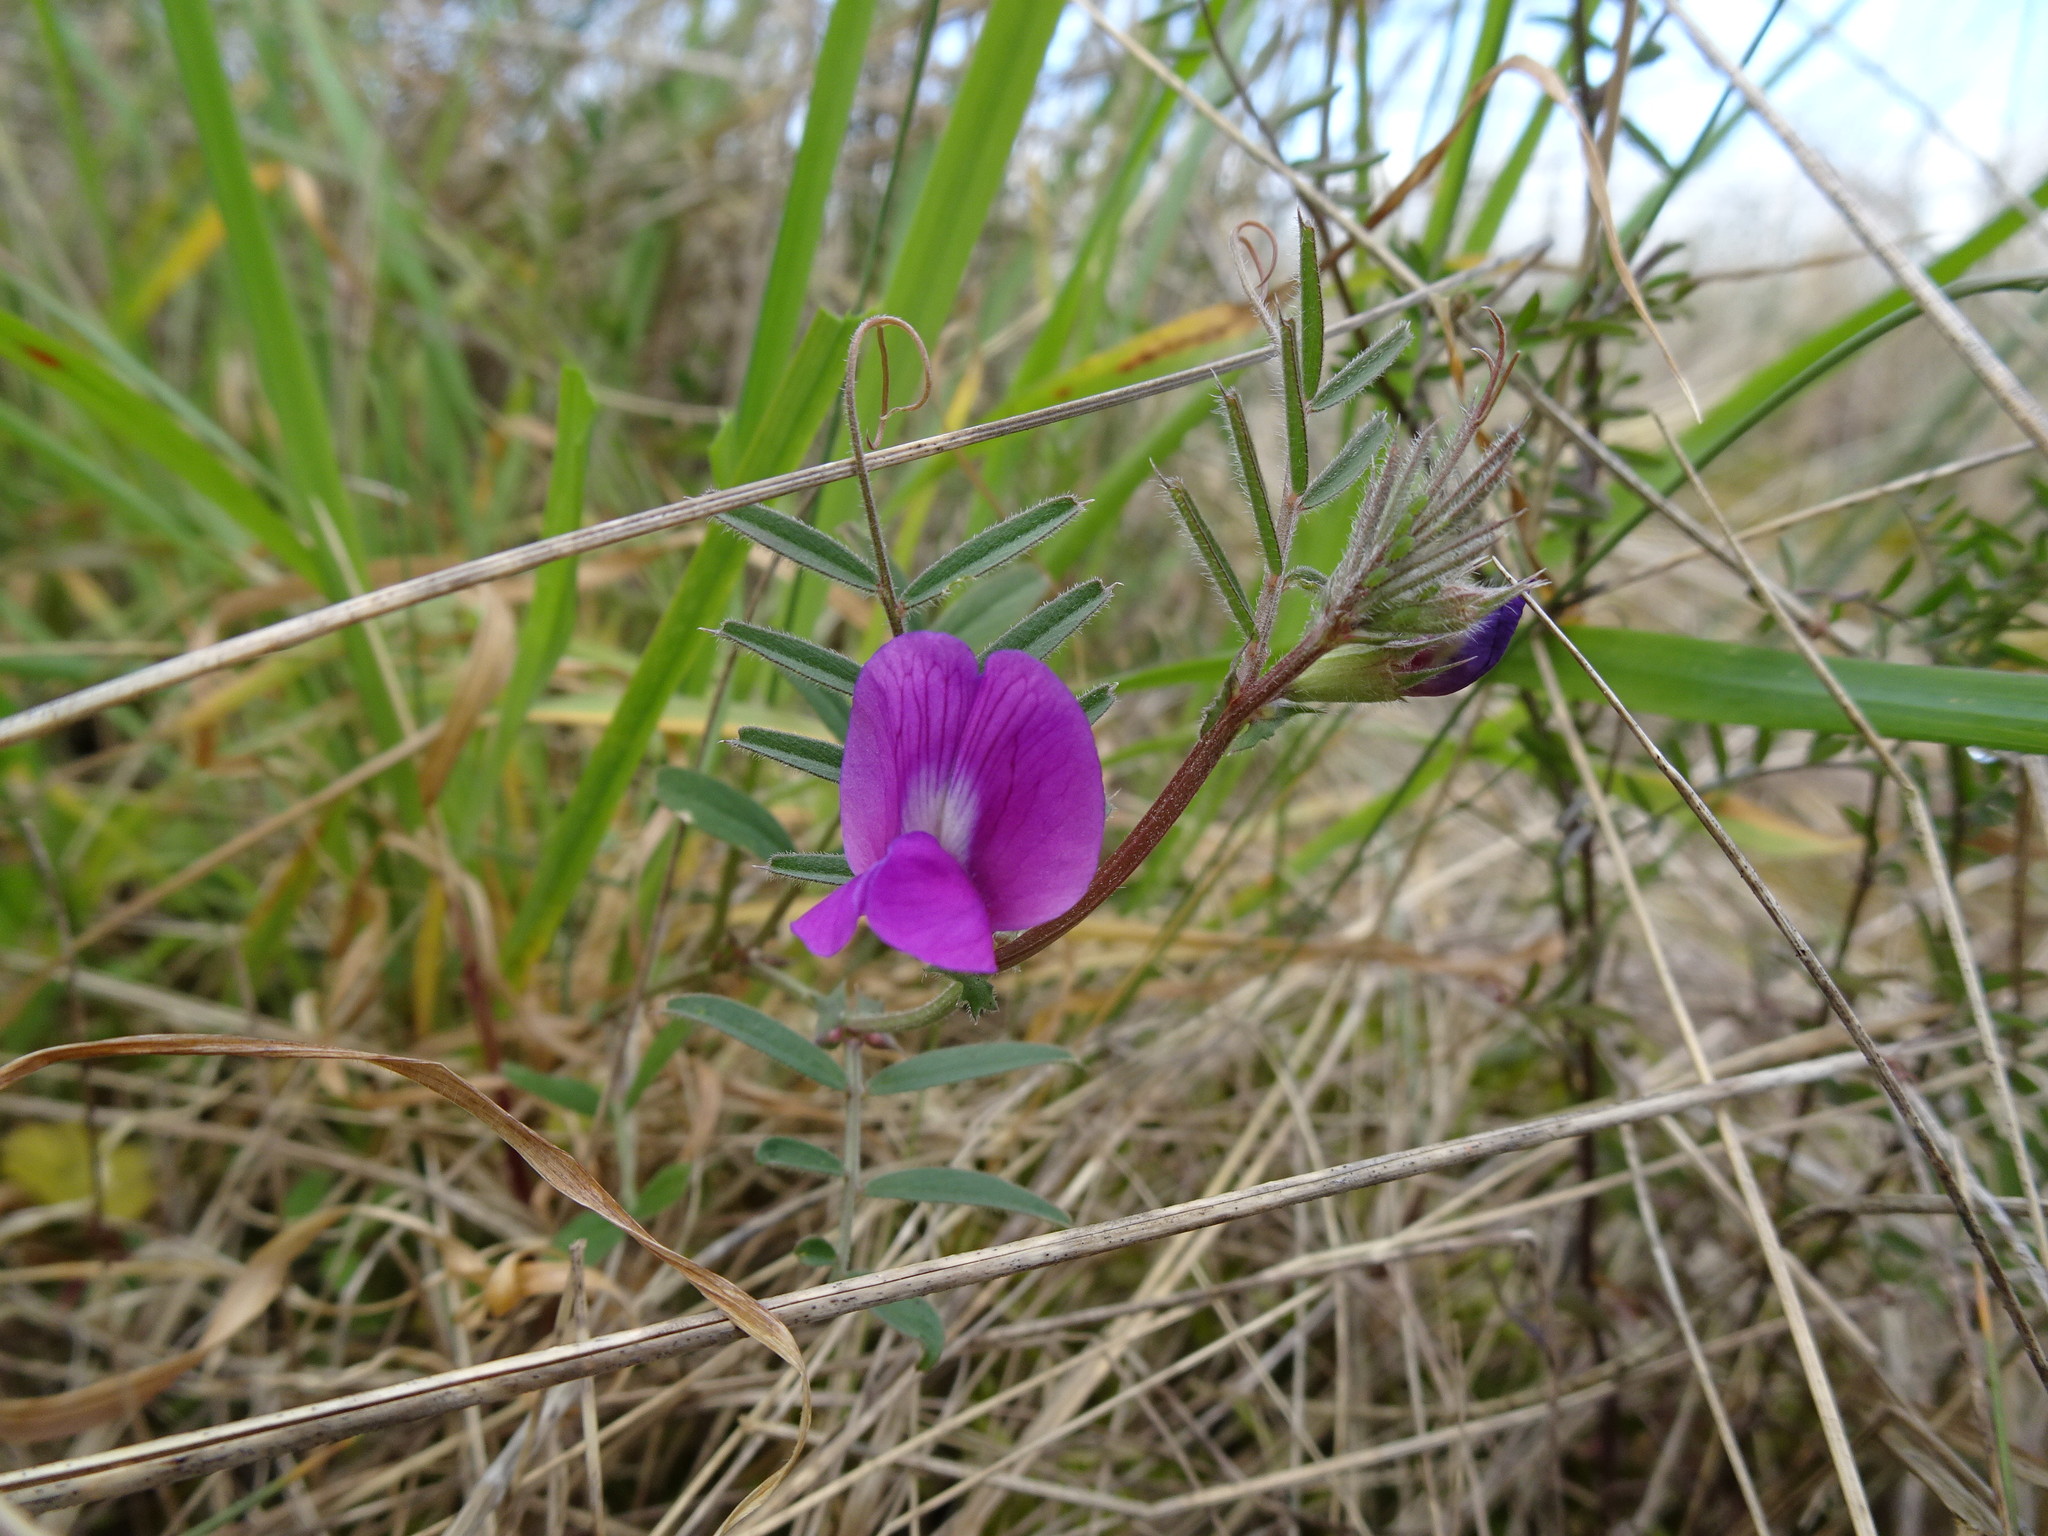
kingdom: Plantae
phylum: Tracheophyta
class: Magnoliopsida
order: Fabales
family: Fabaceae
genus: Vicia
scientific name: Vicia sativa
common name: Garden vetch
